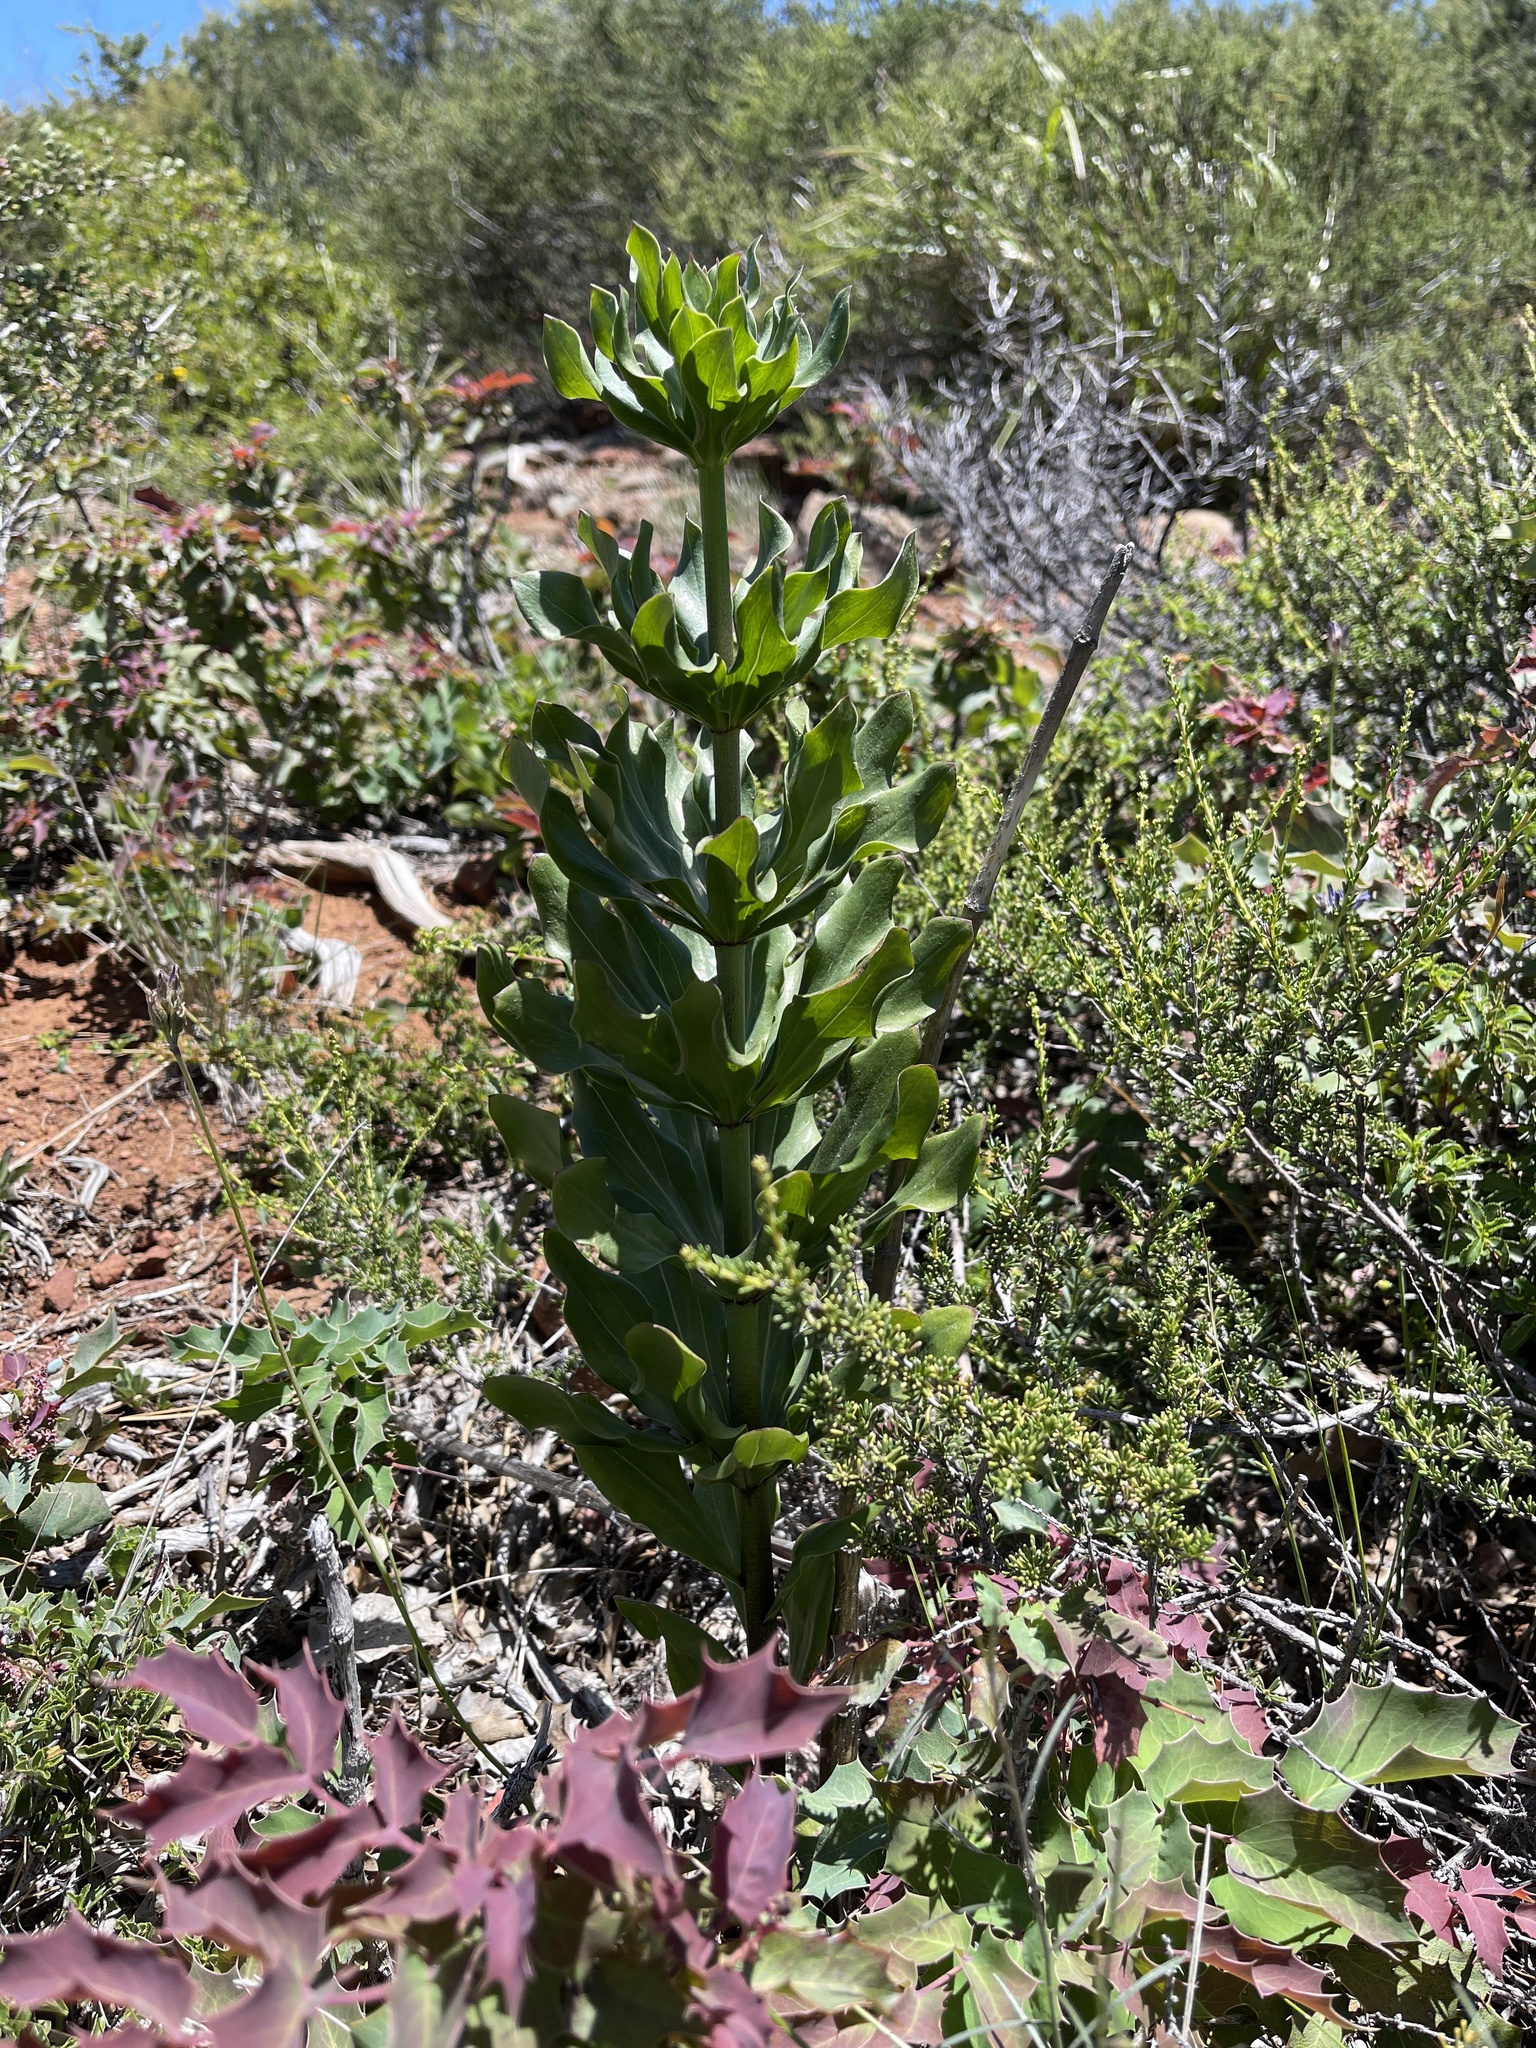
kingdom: Plantae
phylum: Tracheophyta
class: Liliopsida
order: Liliales
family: Liliaceae
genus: Lilium
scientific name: Lilium humboldtii
